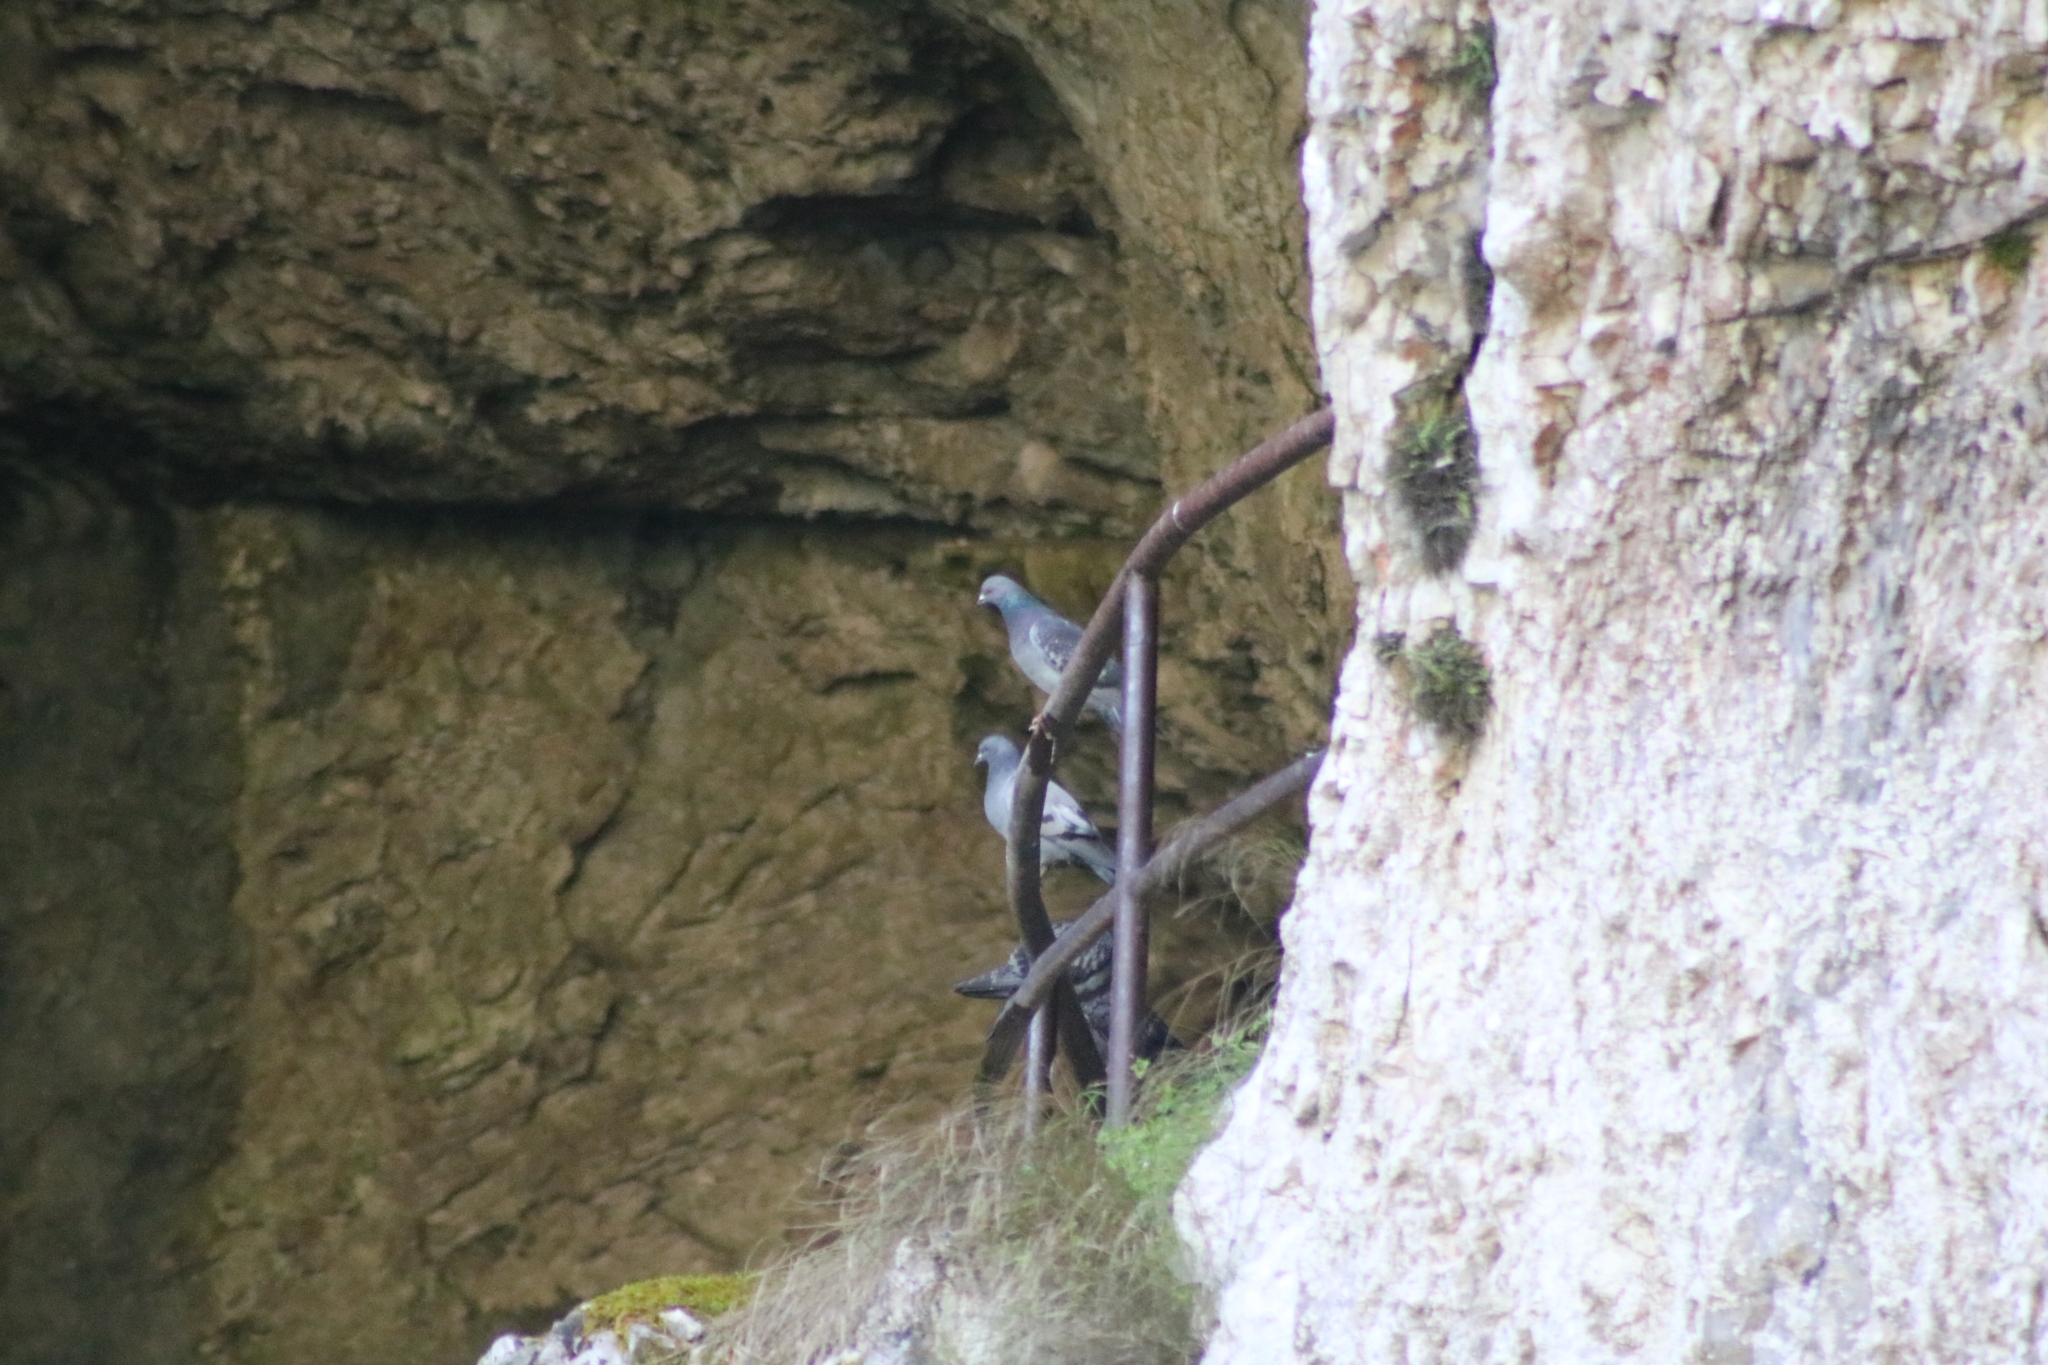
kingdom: Animalia
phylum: Chordata
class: Aves
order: Columbiformes
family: Columbidae
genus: Columba
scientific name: Columba livia
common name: Rock pigeon
